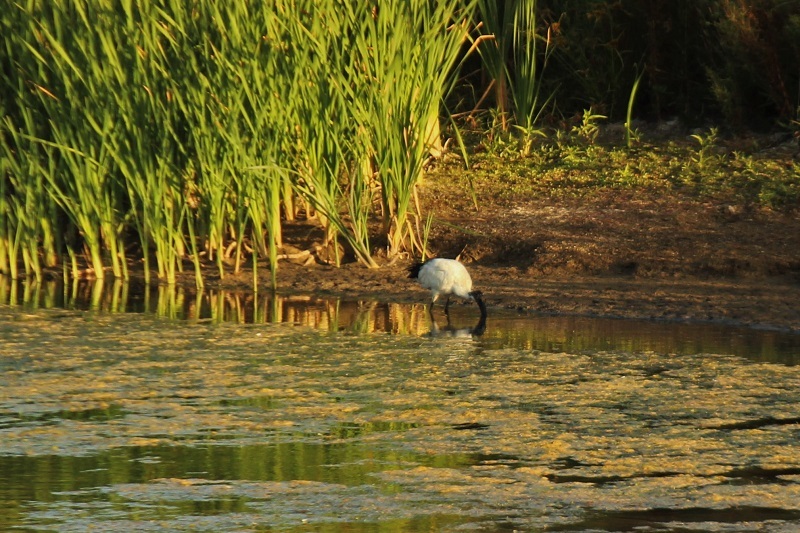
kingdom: Animalia
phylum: Chordata
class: Aves
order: Pelecaniformes
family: Threskiornithidae
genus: Threskiornis
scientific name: Threskiornis aethiopicus
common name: Sacred ibis
